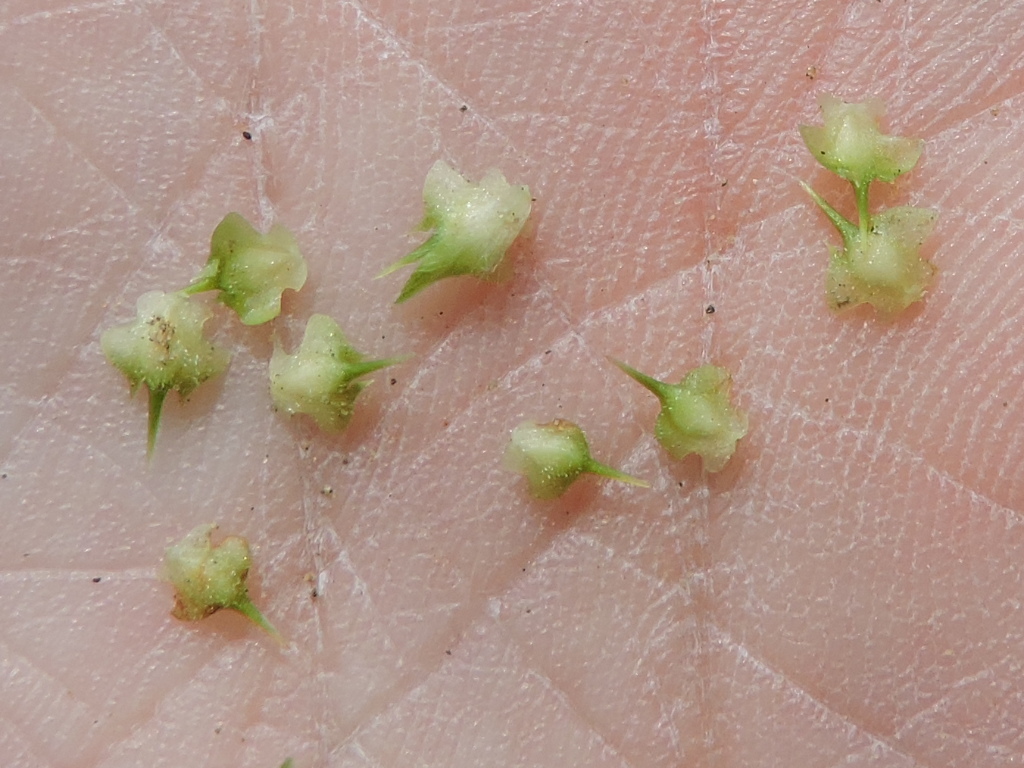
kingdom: Plantae
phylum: Tracheophyta
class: Magnoliopsida
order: Asterales
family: Asteraceae
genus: Soliva
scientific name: Soliva sessilis
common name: Field burrweed
